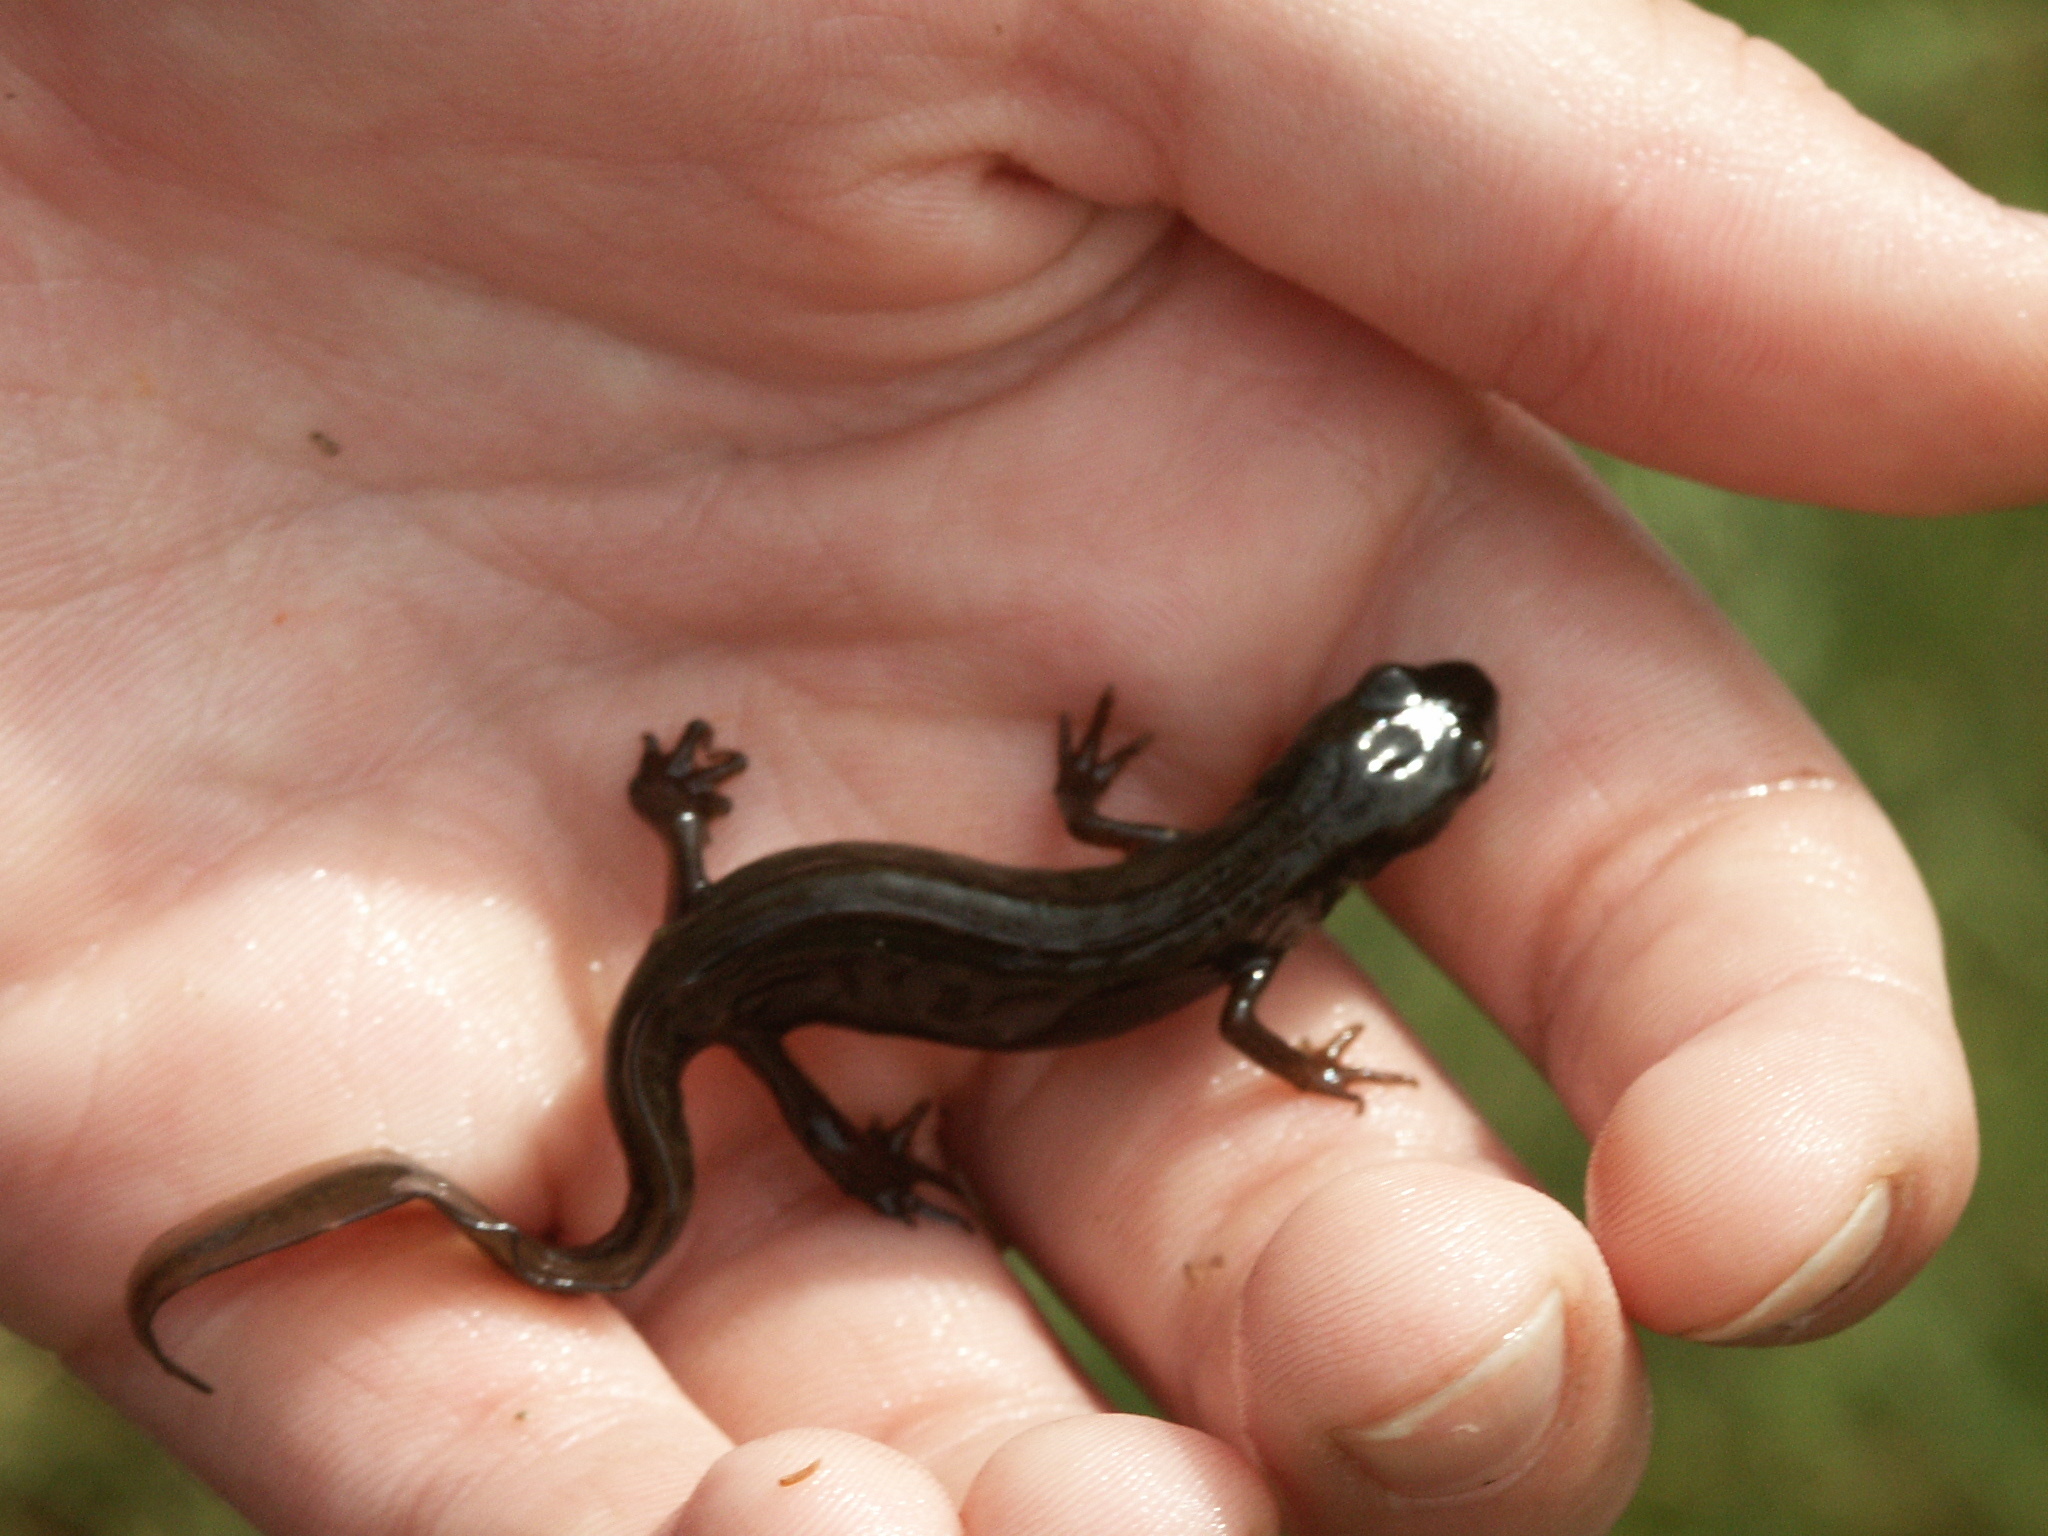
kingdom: Animalia
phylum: Chordata
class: Amphibia
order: Caudata
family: Salamandridae
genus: Lissotriton
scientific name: Lissotriton vulgaris
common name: Smooth newt
